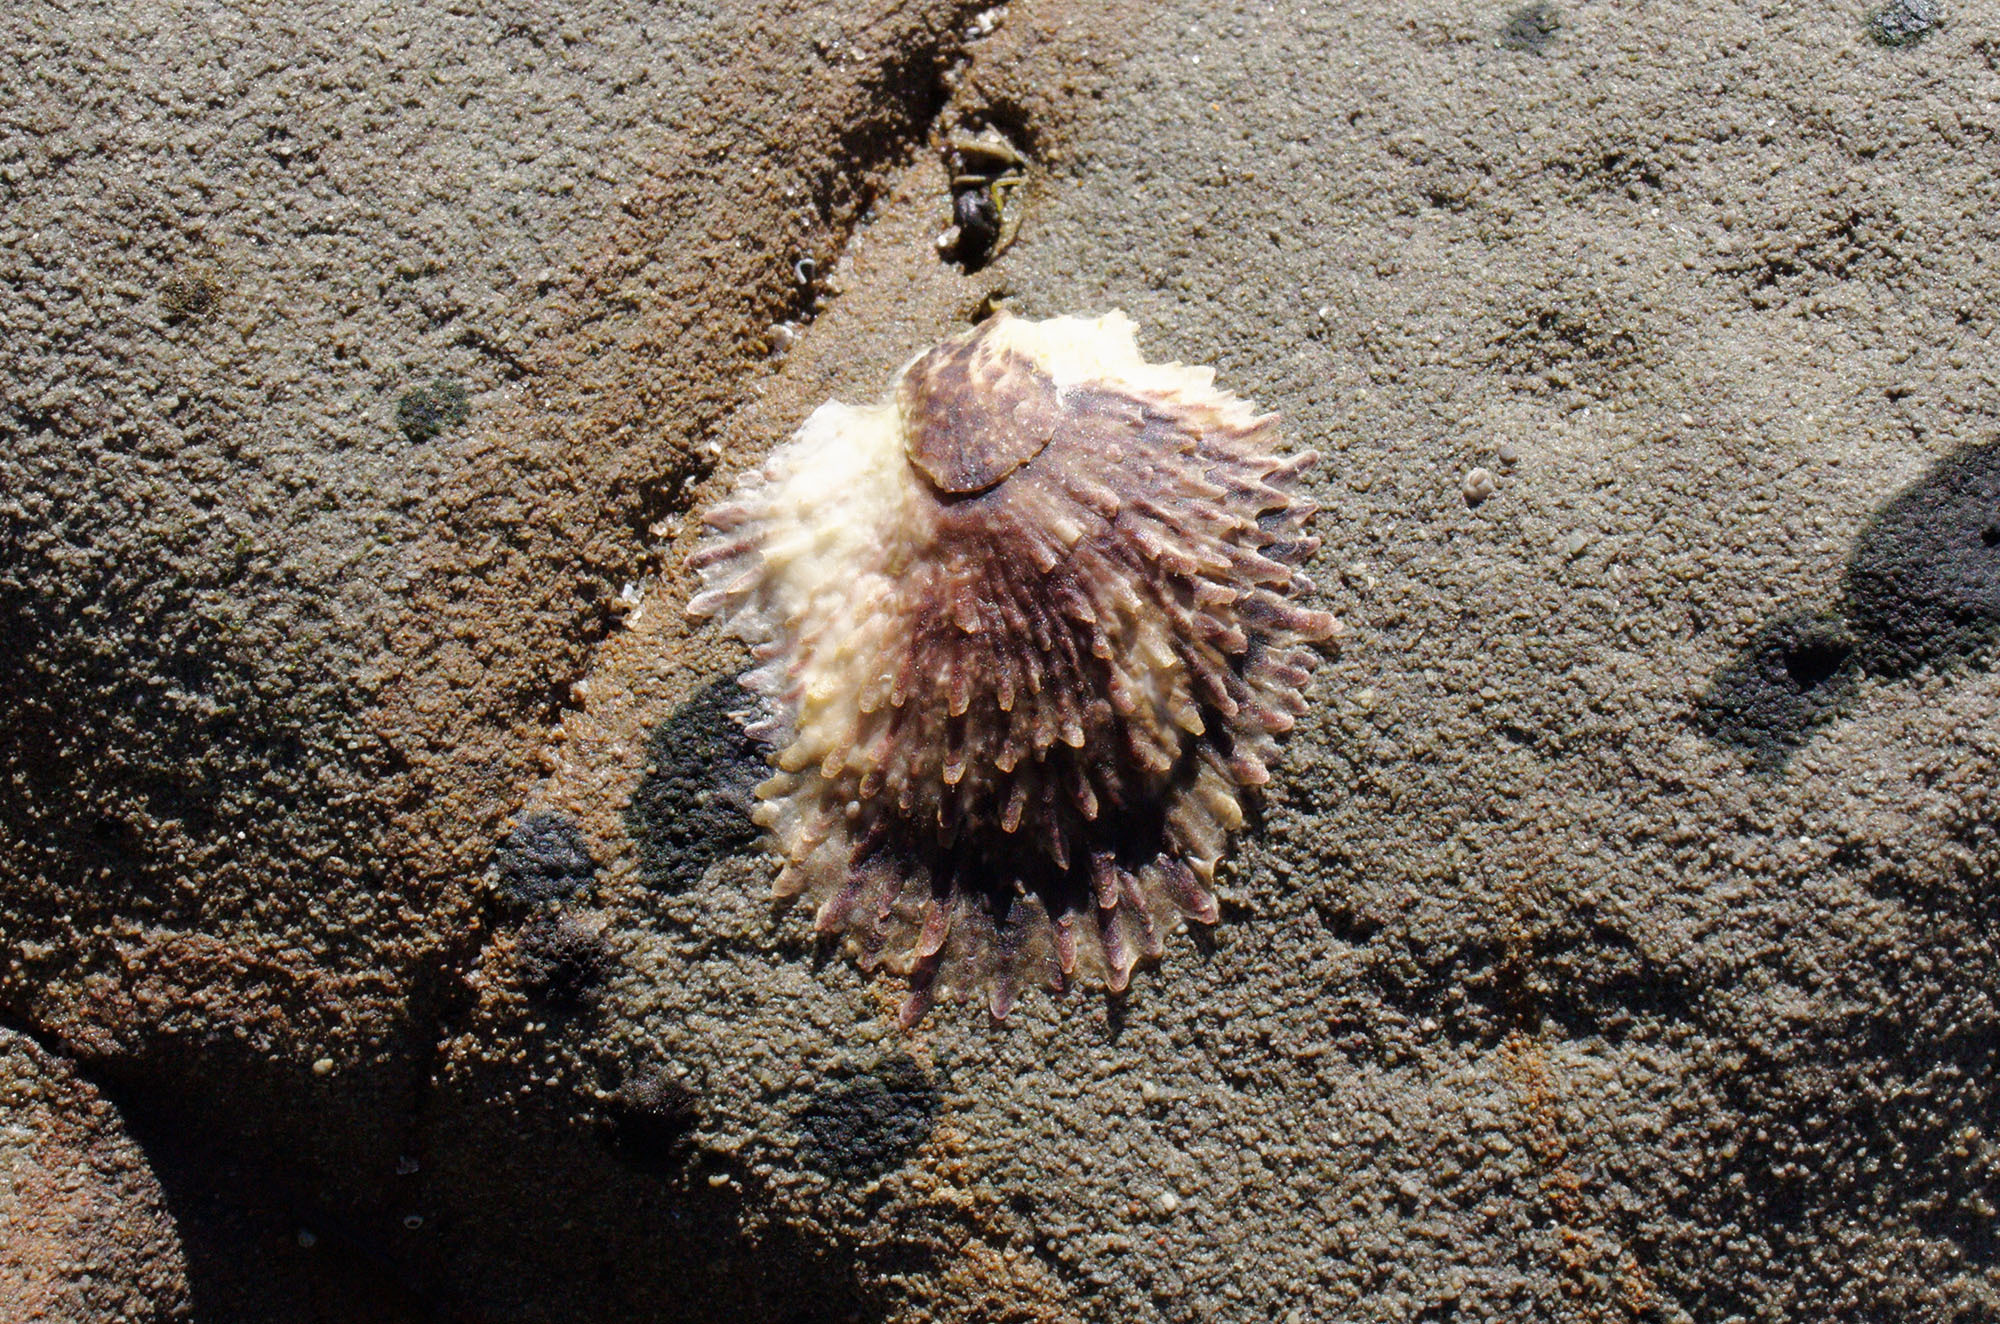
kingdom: Animalia
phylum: Mollusca
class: Bivalvia
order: Ostreida
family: Ostreidae
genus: Magallana
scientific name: Magallana gigas
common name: Pacific oyster
